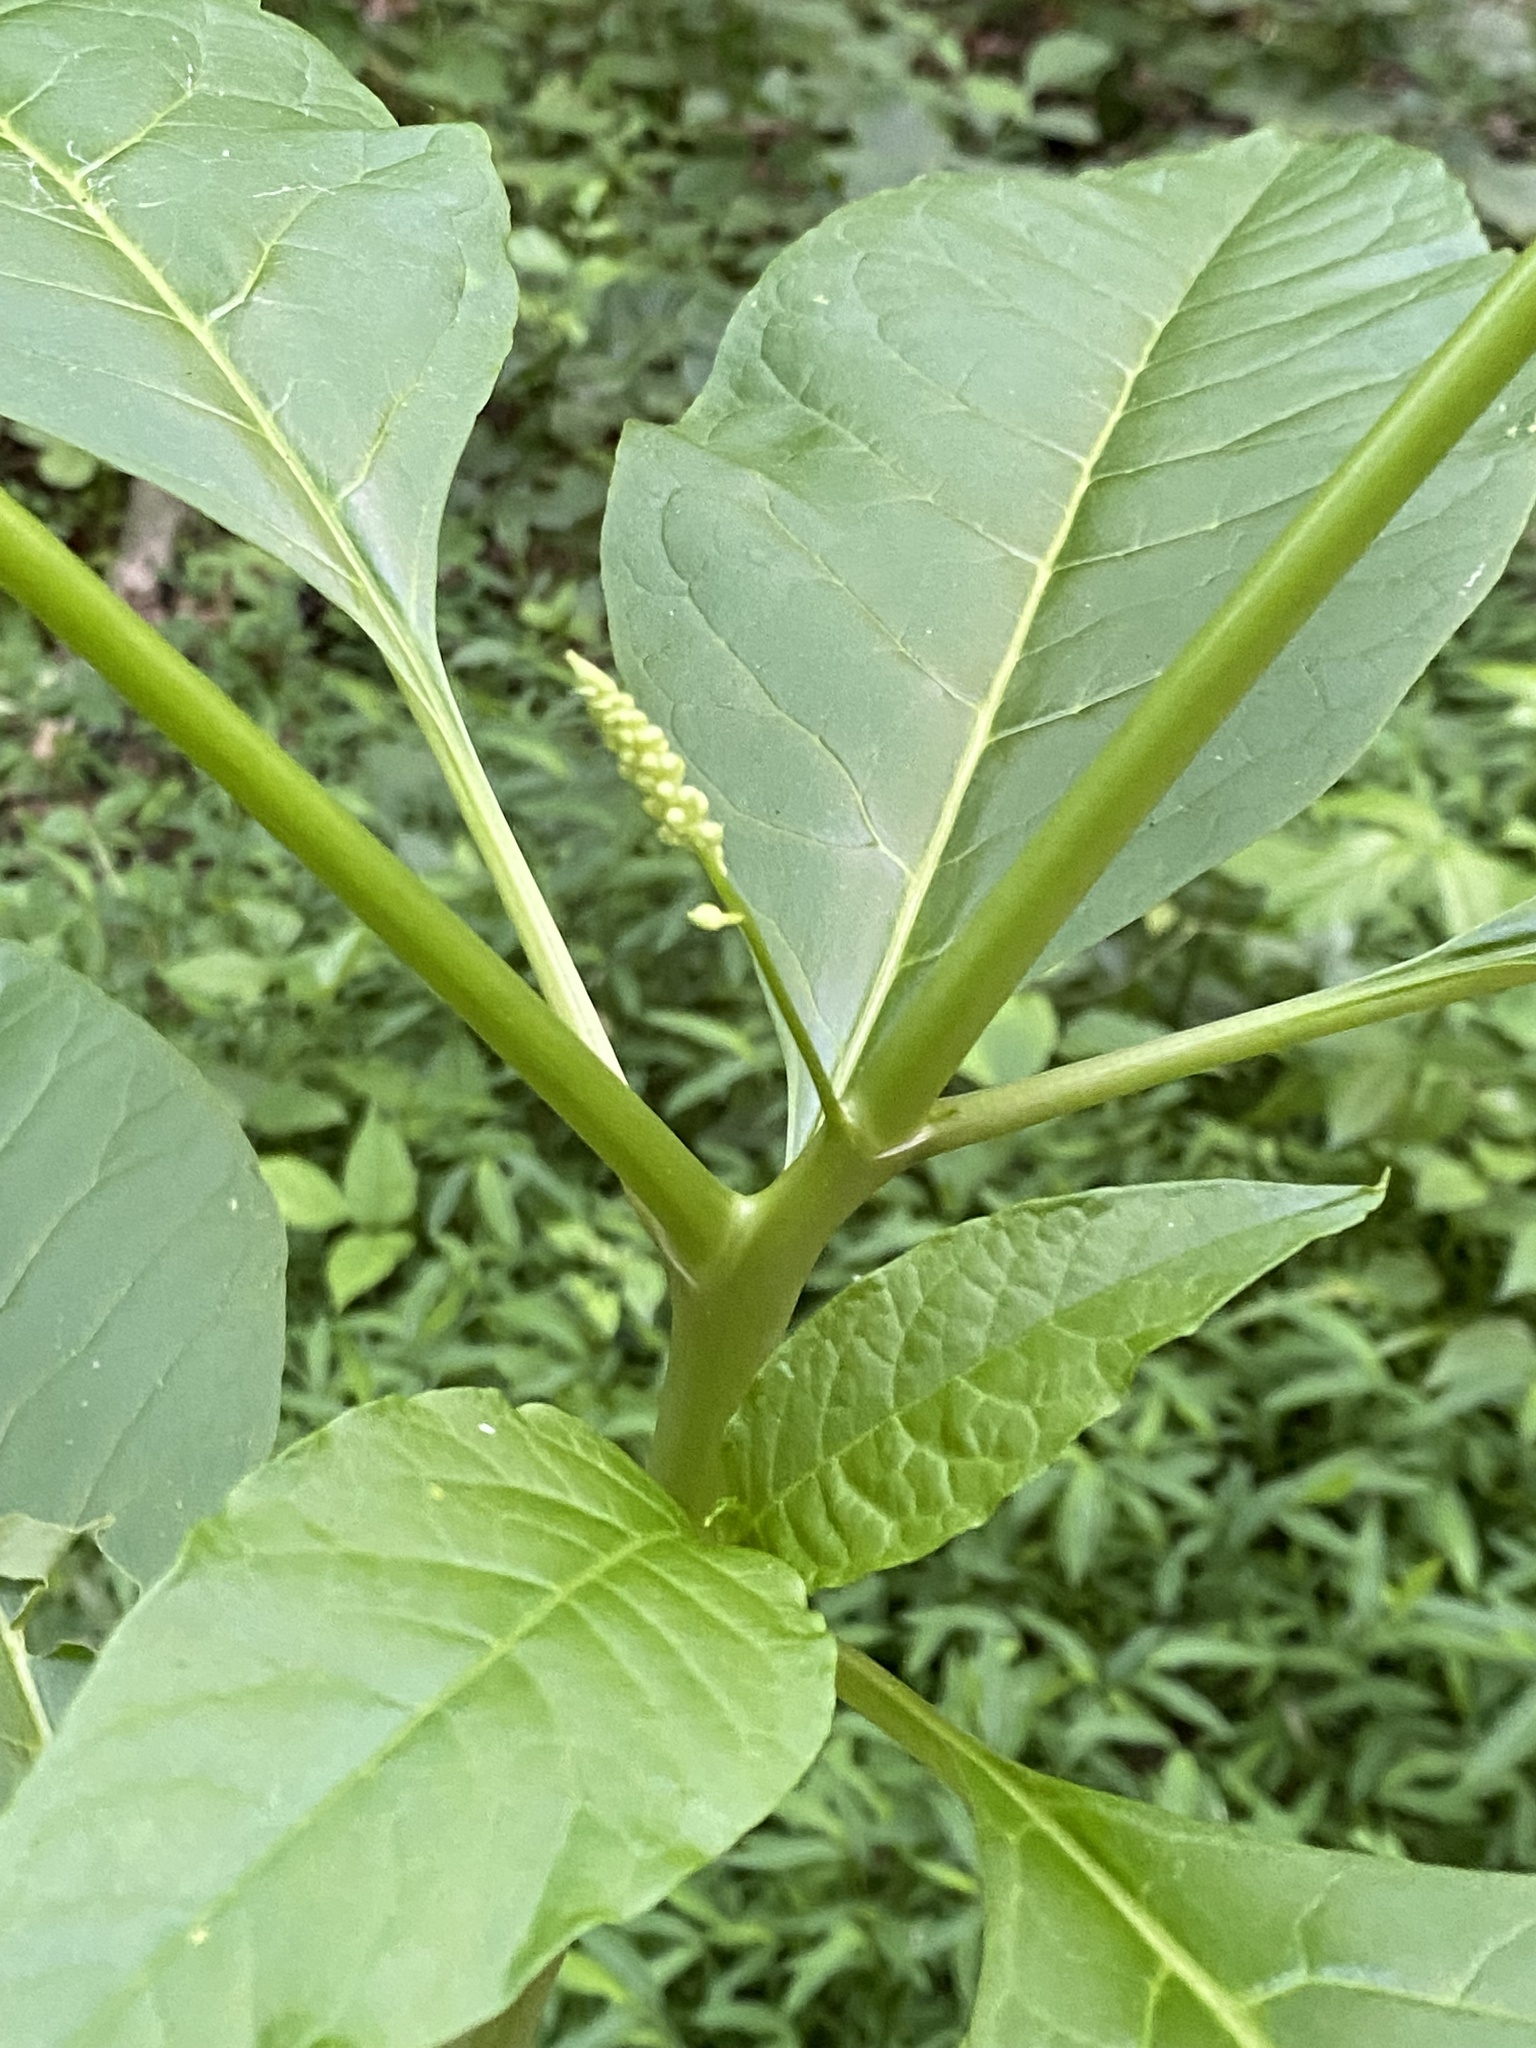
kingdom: Plantae
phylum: Tracheophyta
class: Magnoliopsida
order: Caryophyllales
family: Phytolaccaceae
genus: Phytolacca
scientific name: Phytolacca americana
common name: American pokeweed
